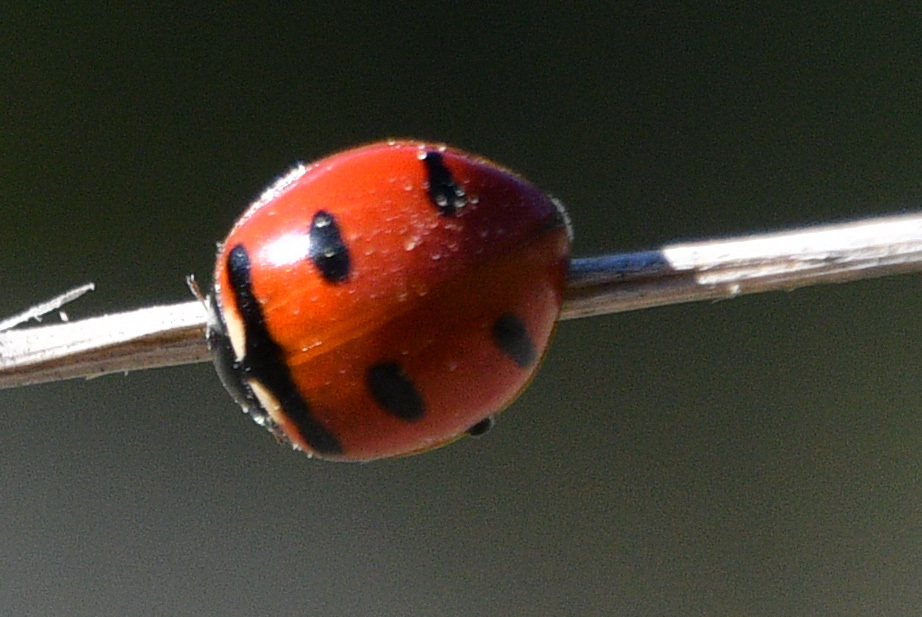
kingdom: Animalia
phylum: Arthropoda
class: Insecta
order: Coleoptera
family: Coccinellidae
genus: Coccinella
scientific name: Coccinella transversoguttata
